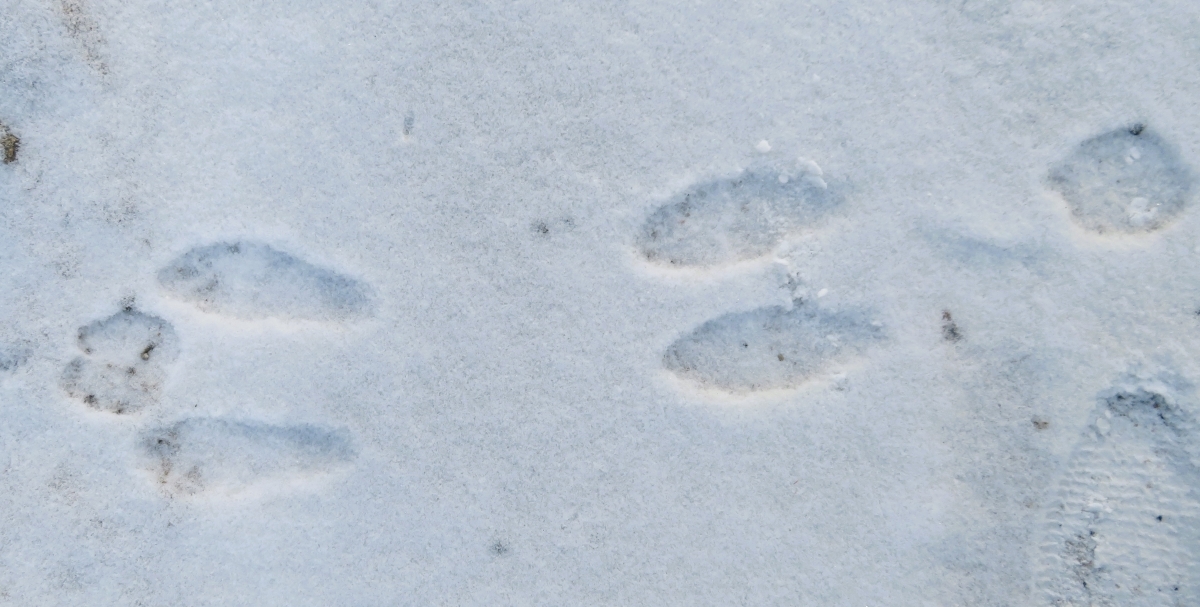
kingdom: Animalia
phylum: Chordata
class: Mammalia
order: Lagomorpha
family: Leporidae
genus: Lepus
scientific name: Lepus americanus
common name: Snowshoe hare
